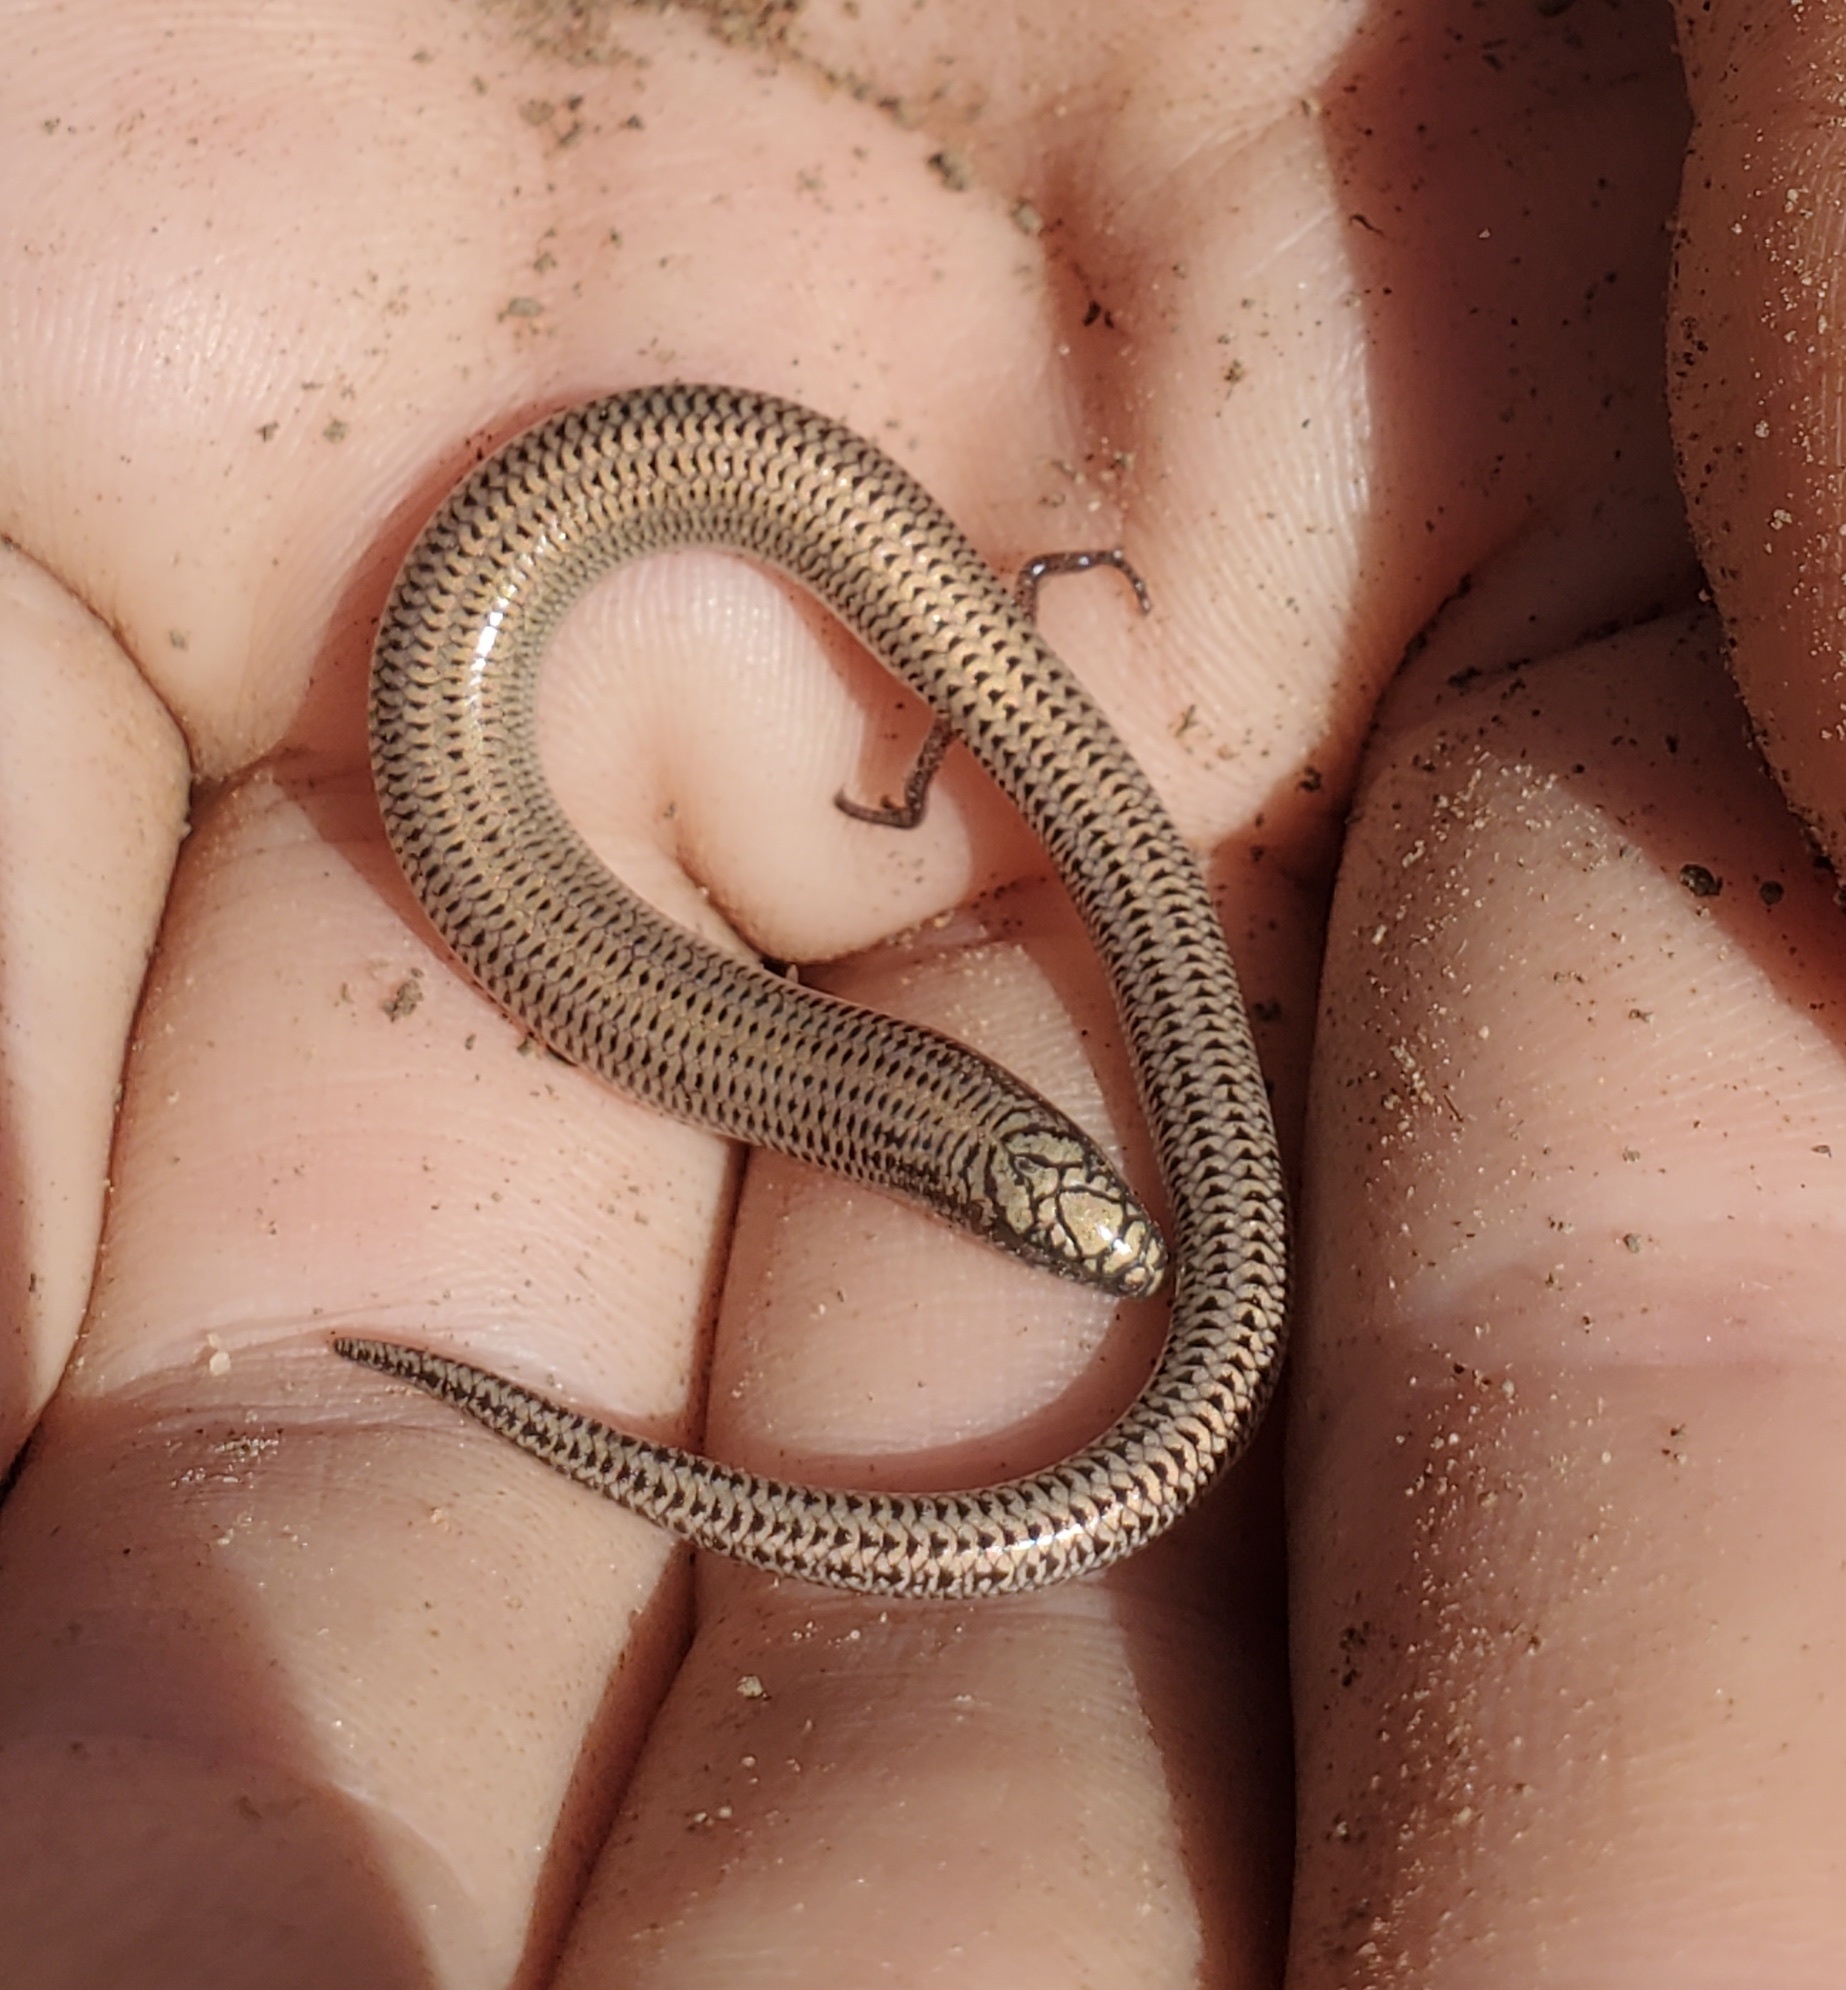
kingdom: Animalia
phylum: Chordata
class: Squamata
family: Scincidae
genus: Lerista
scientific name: Lerista punctatovittata
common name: Eastern robust slider
